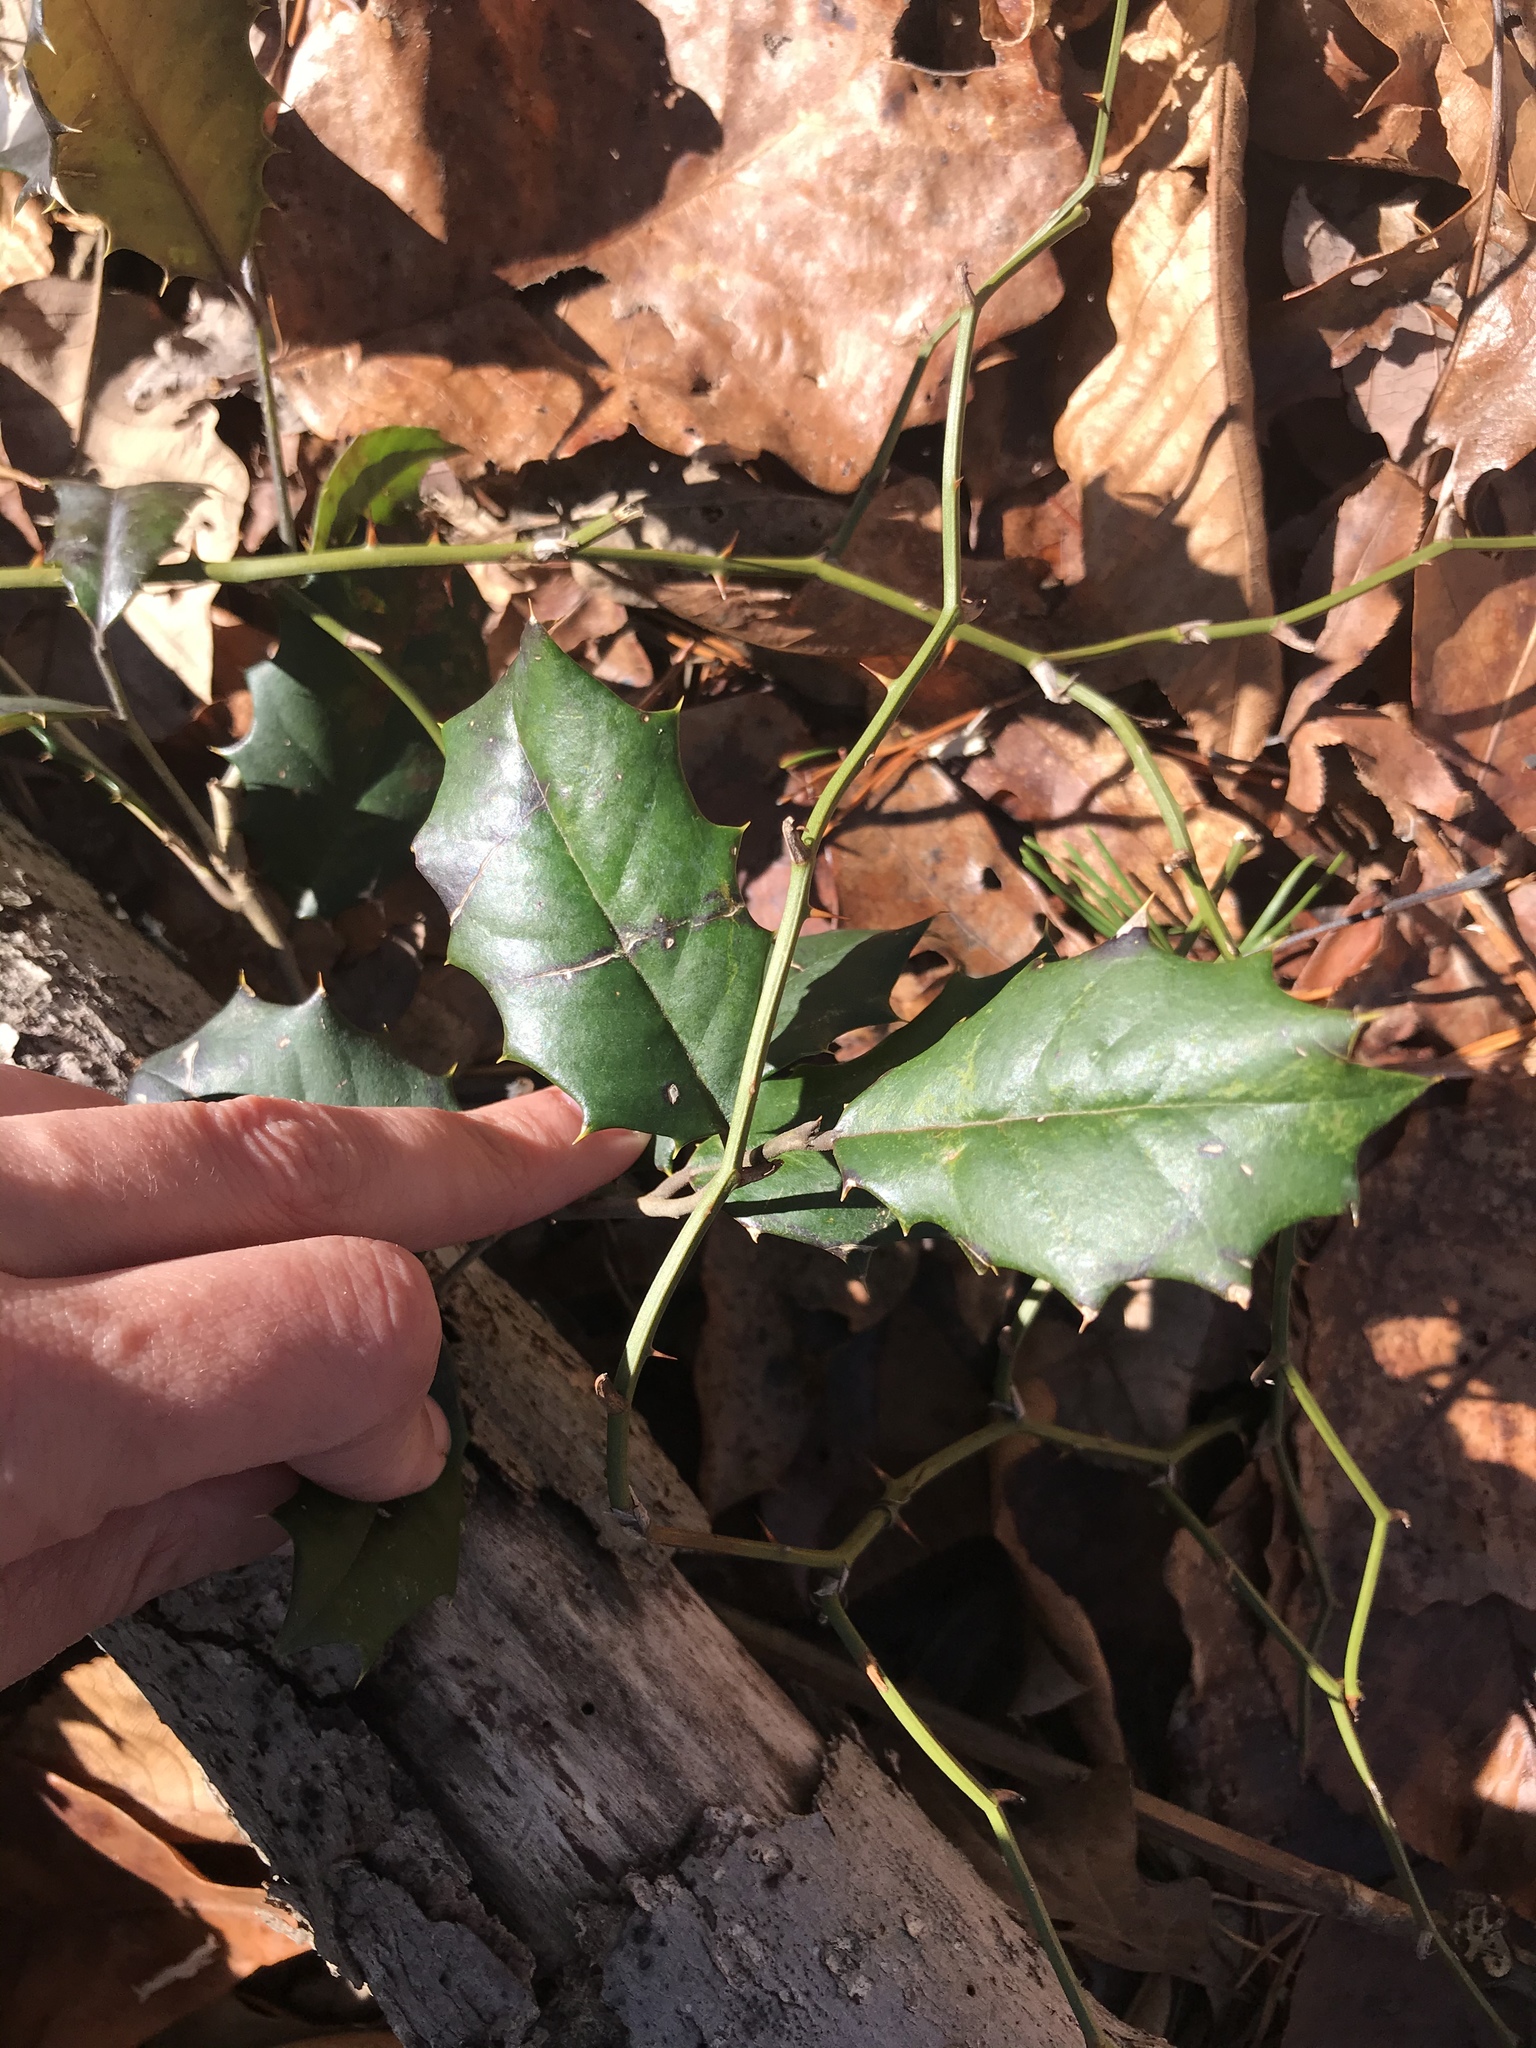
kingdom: Plantae
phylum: Tracheophyta
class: Magnoliopsida
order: Aquifoliales
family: Aquifoliaceae
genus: Ilex
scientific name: Ilex opaca
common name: American holly
